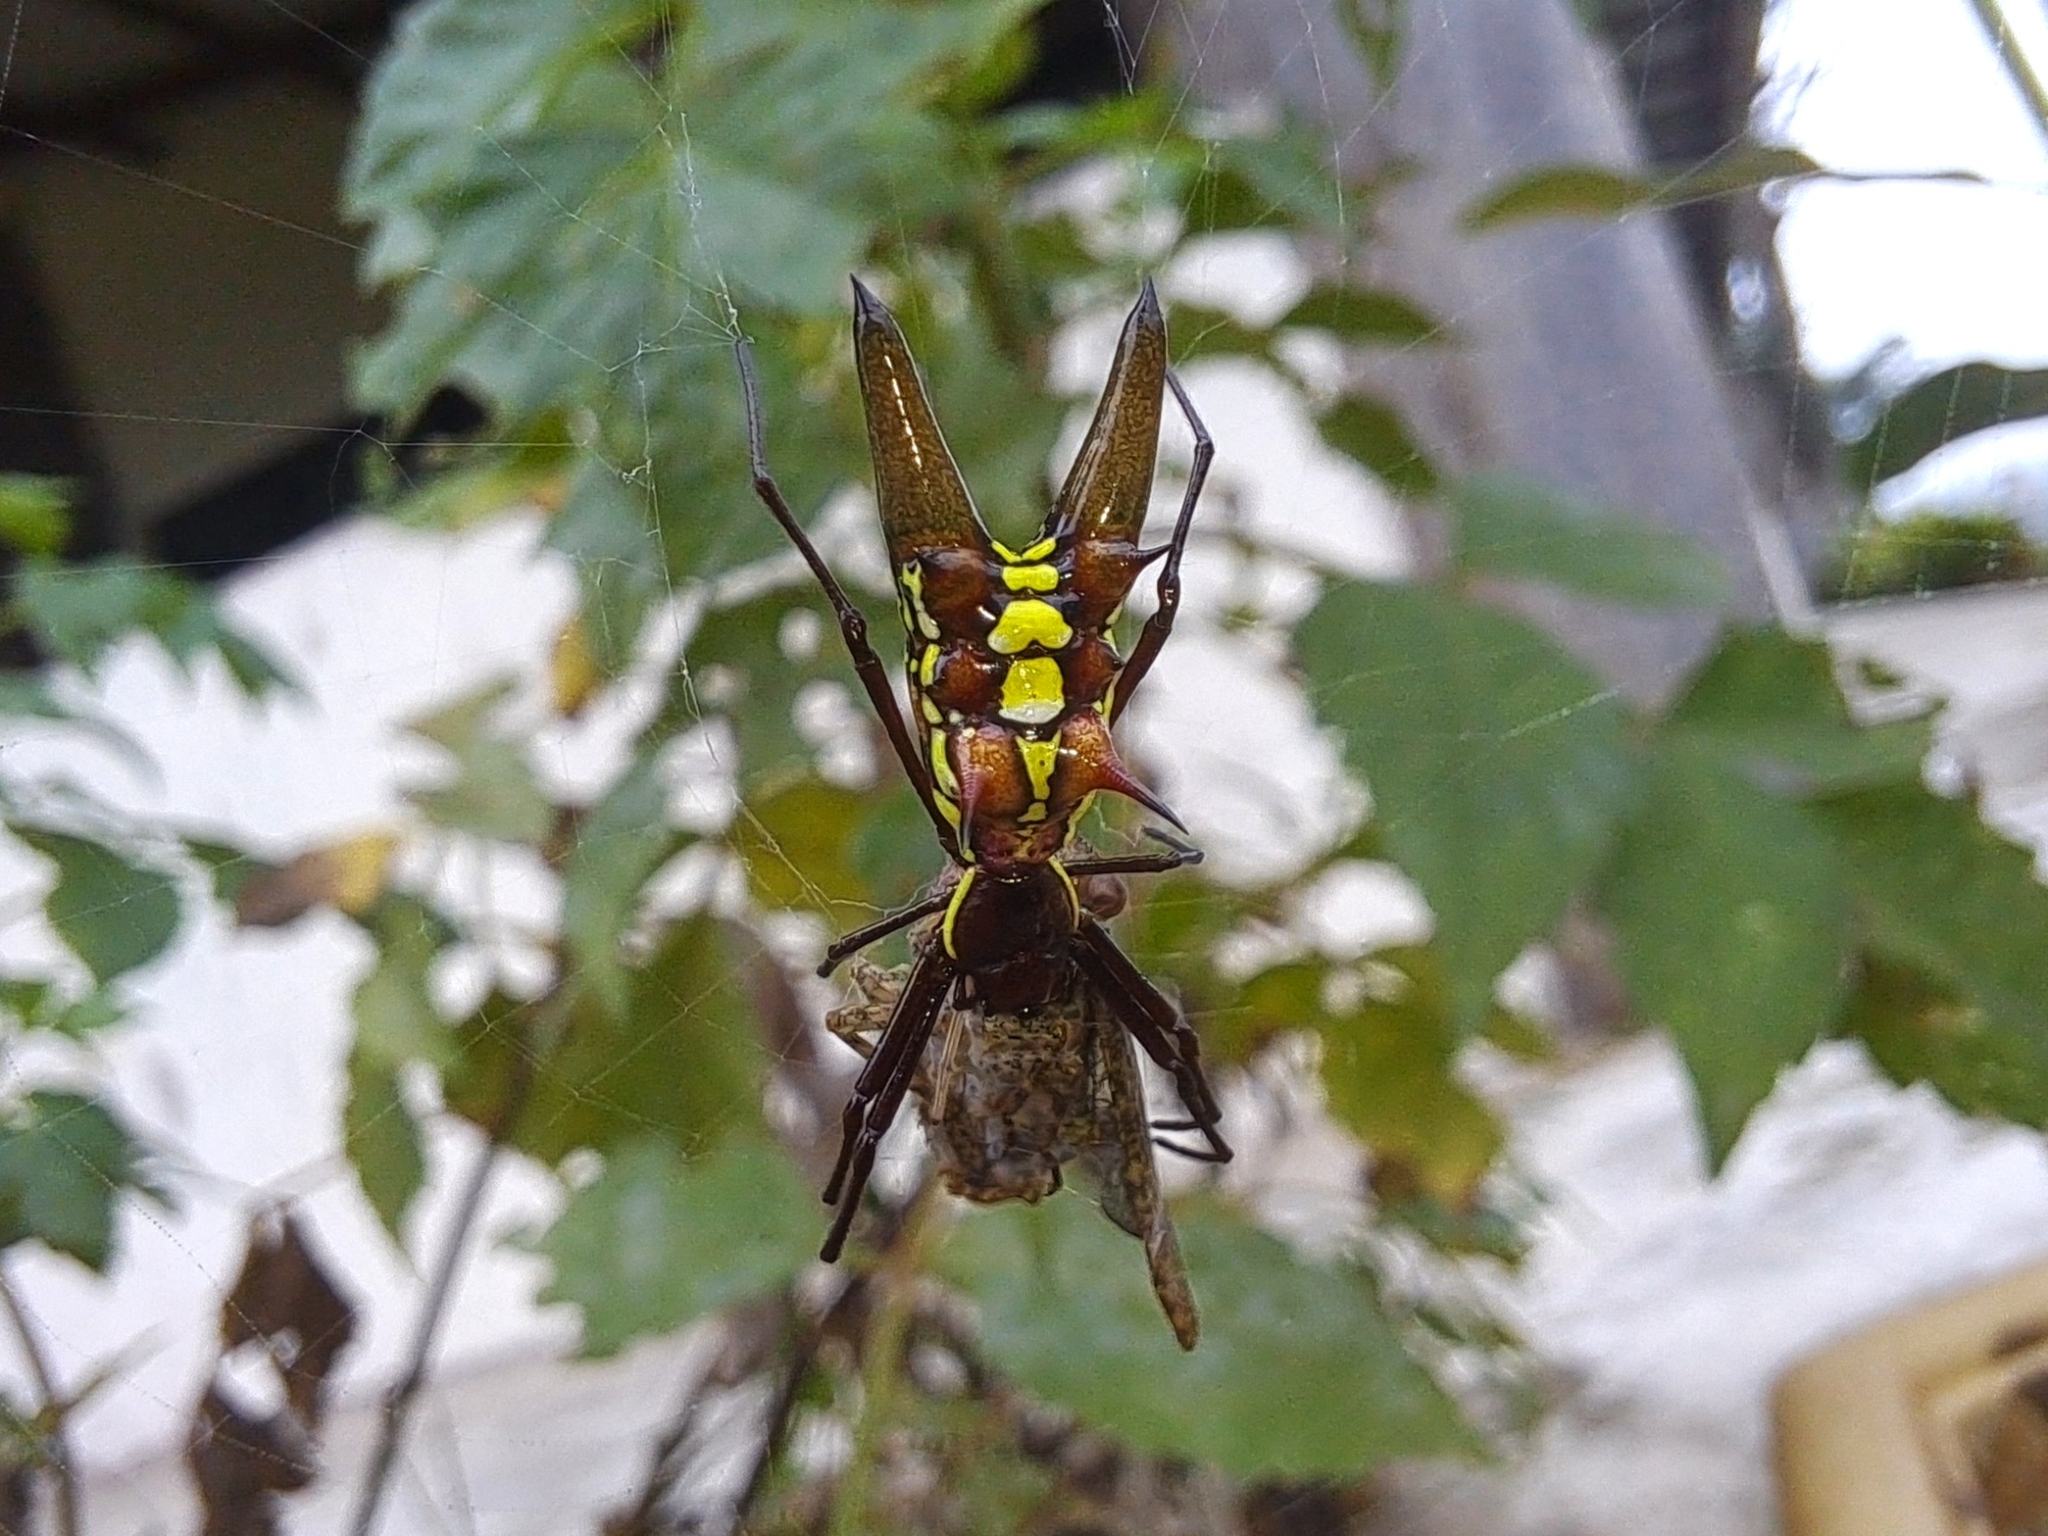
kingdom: Animalia
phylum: Arthropoda
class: Arachnida
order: Araneae
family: Araneidae
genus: Micrathena
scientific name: Micrathena pichincha
